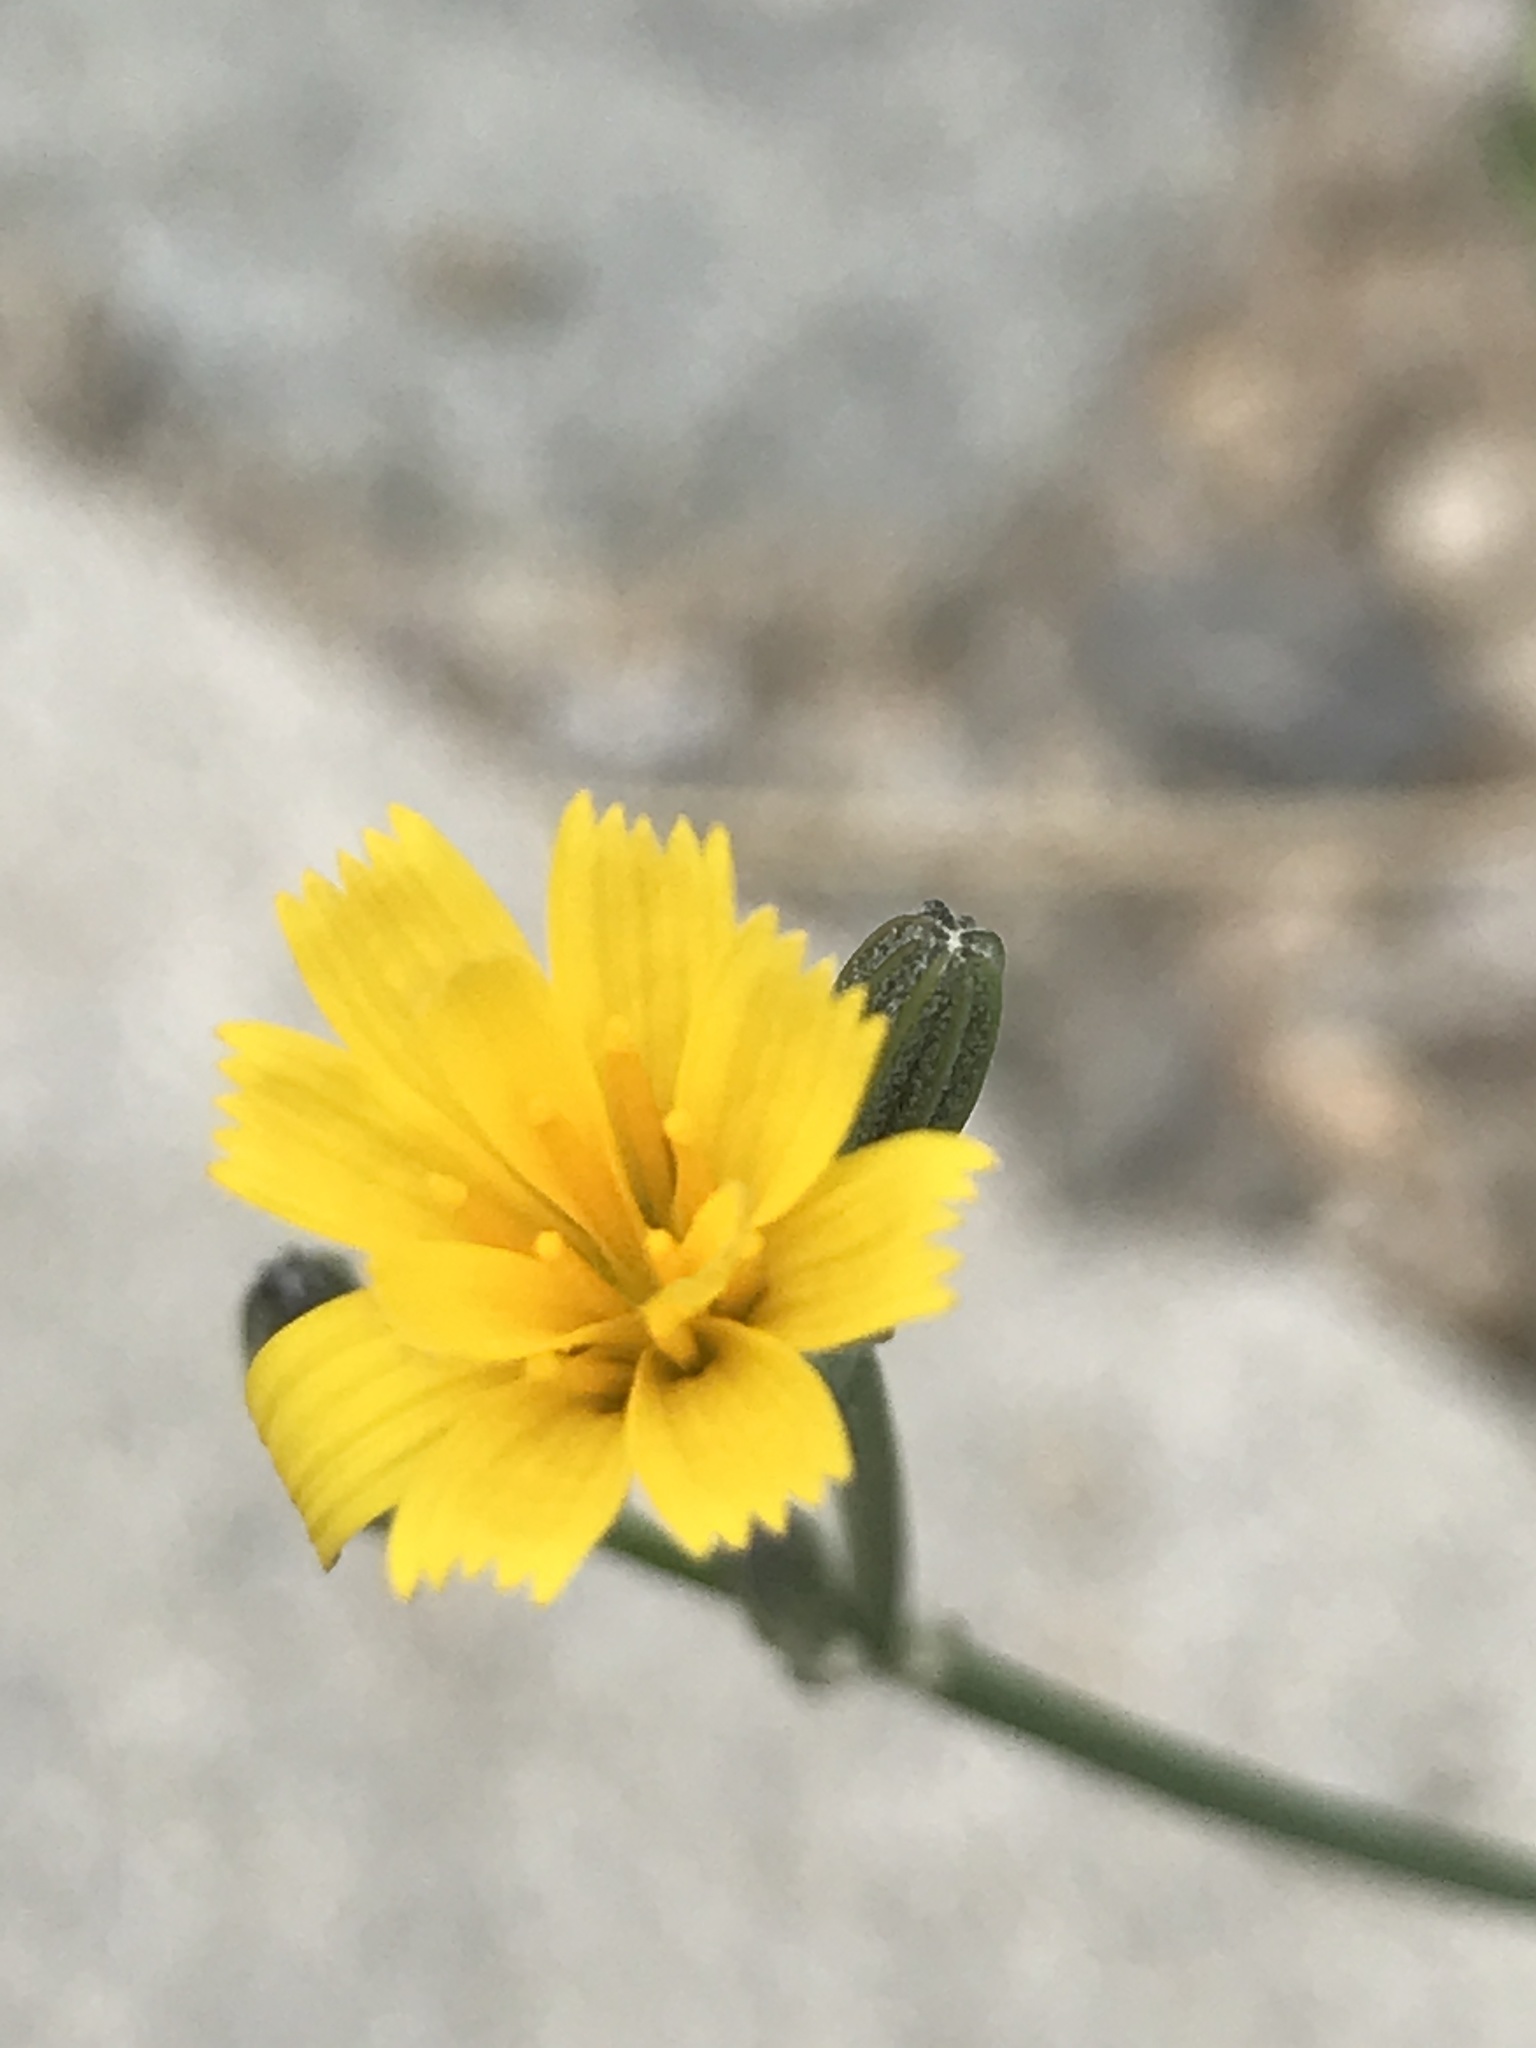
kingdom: Plantae
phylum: Tracheophyta
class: Magnoliopsida
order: Asterales
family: Asteraceae
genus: Chondrilla
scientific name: Chondrilla juncea
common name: Skeleton weed
